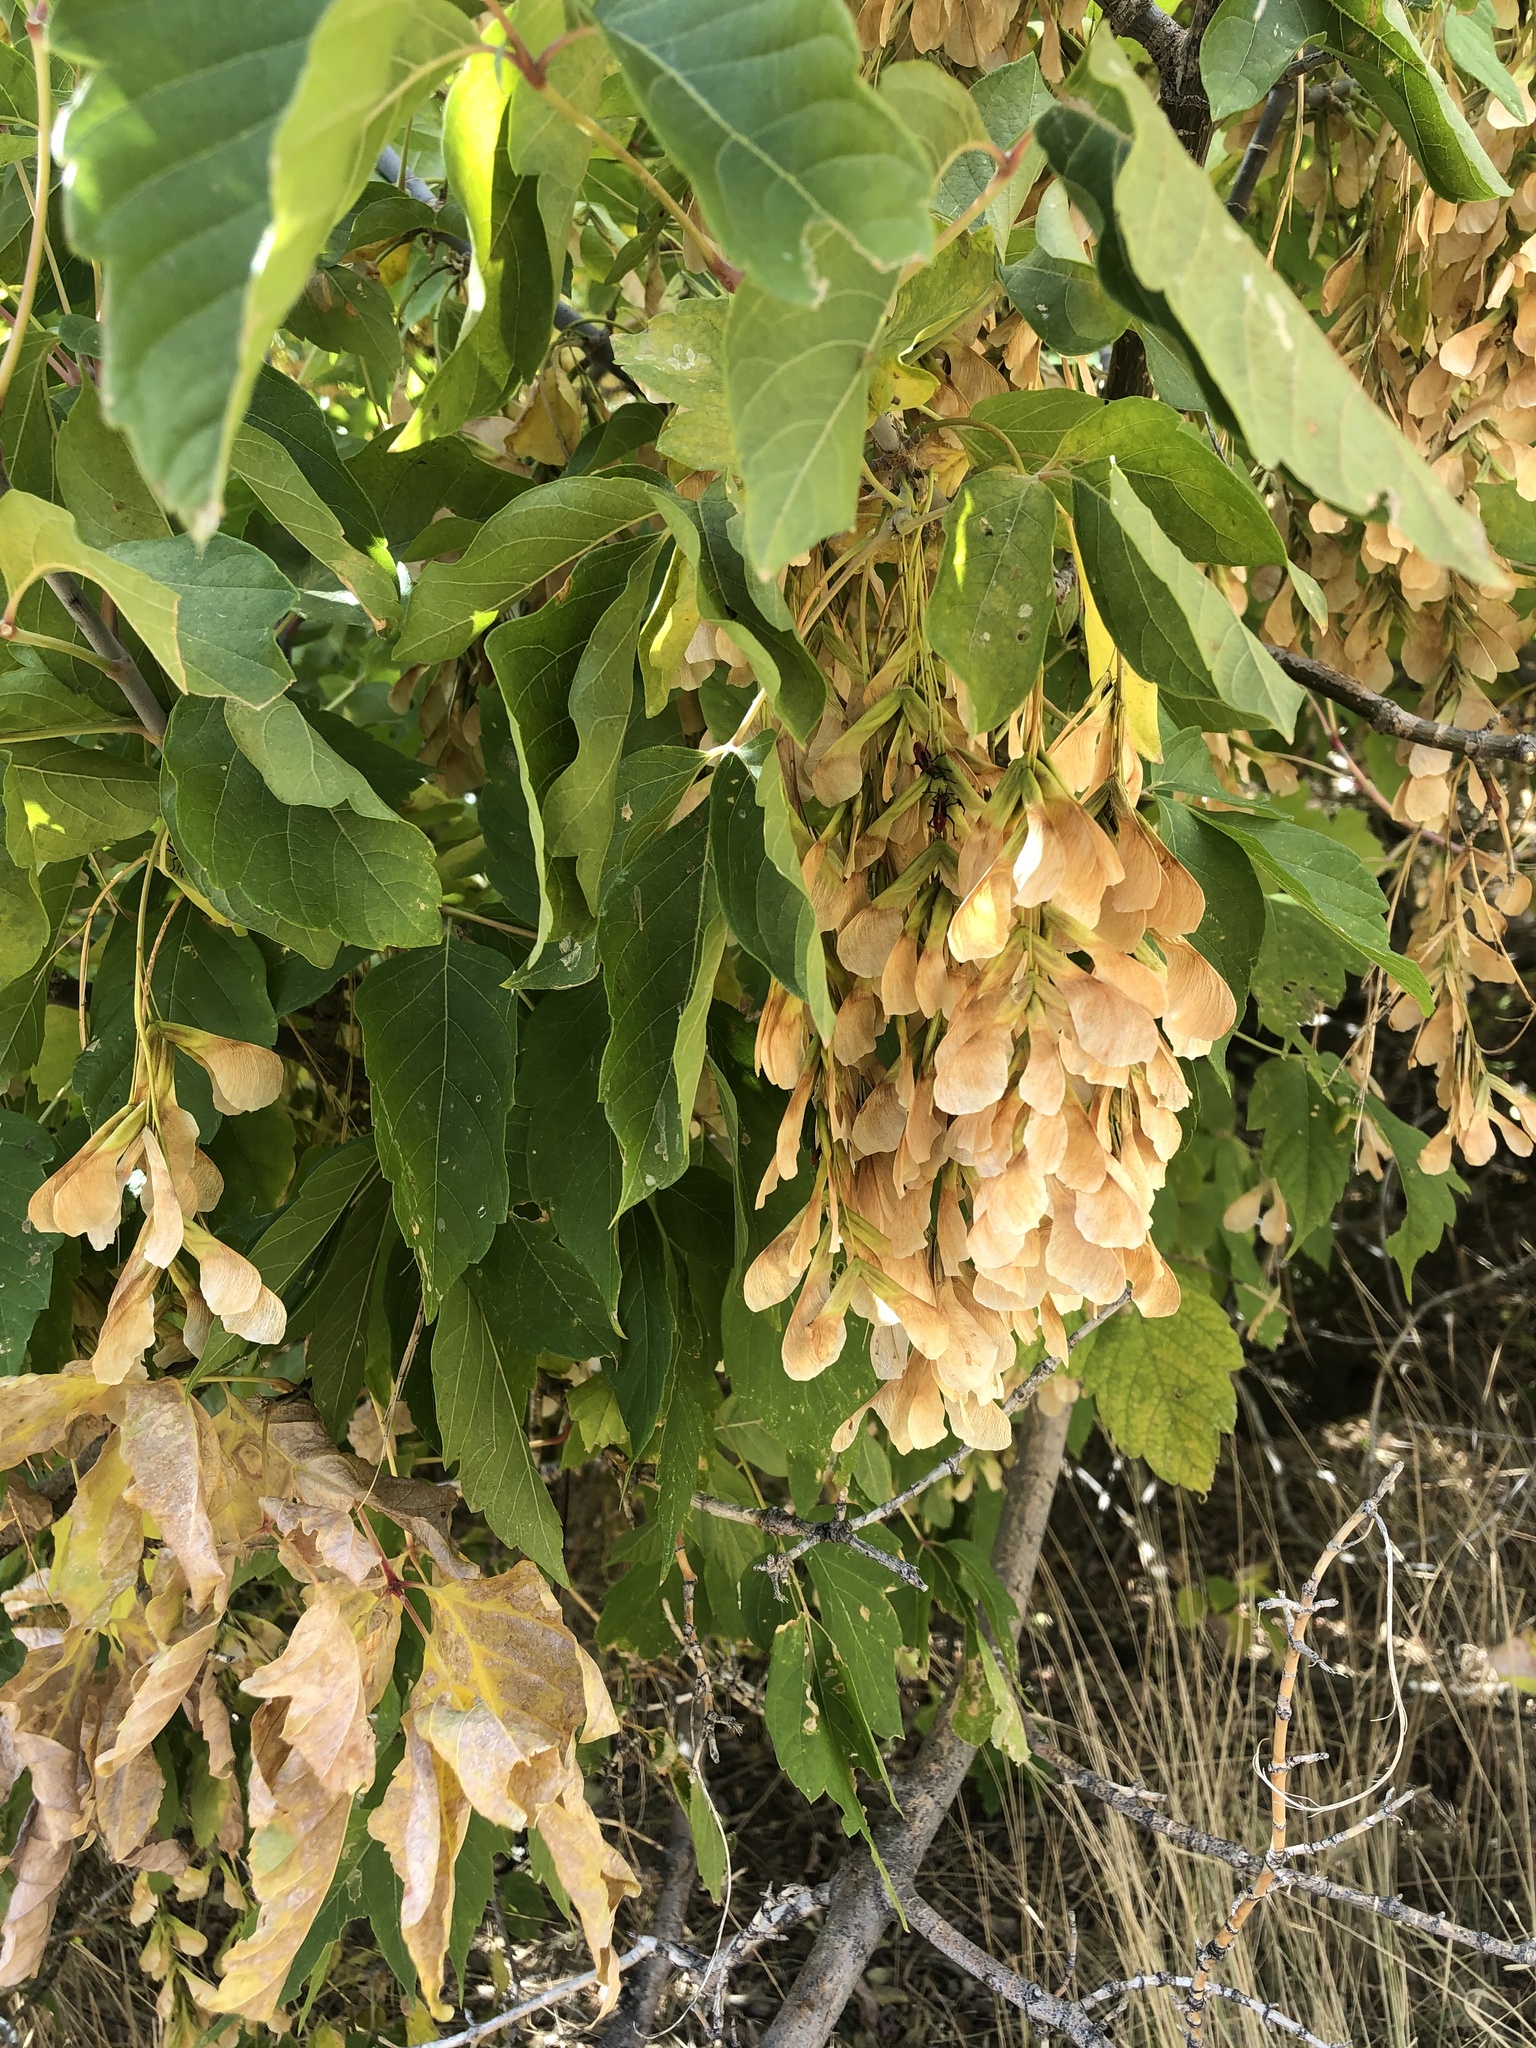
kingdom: Plantae
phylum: Tracheophyta
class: Magnoliopsida
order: Sapindales
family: Sapindaceae
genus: Acer
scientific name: Acer negundo
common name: Ashleaf maple
